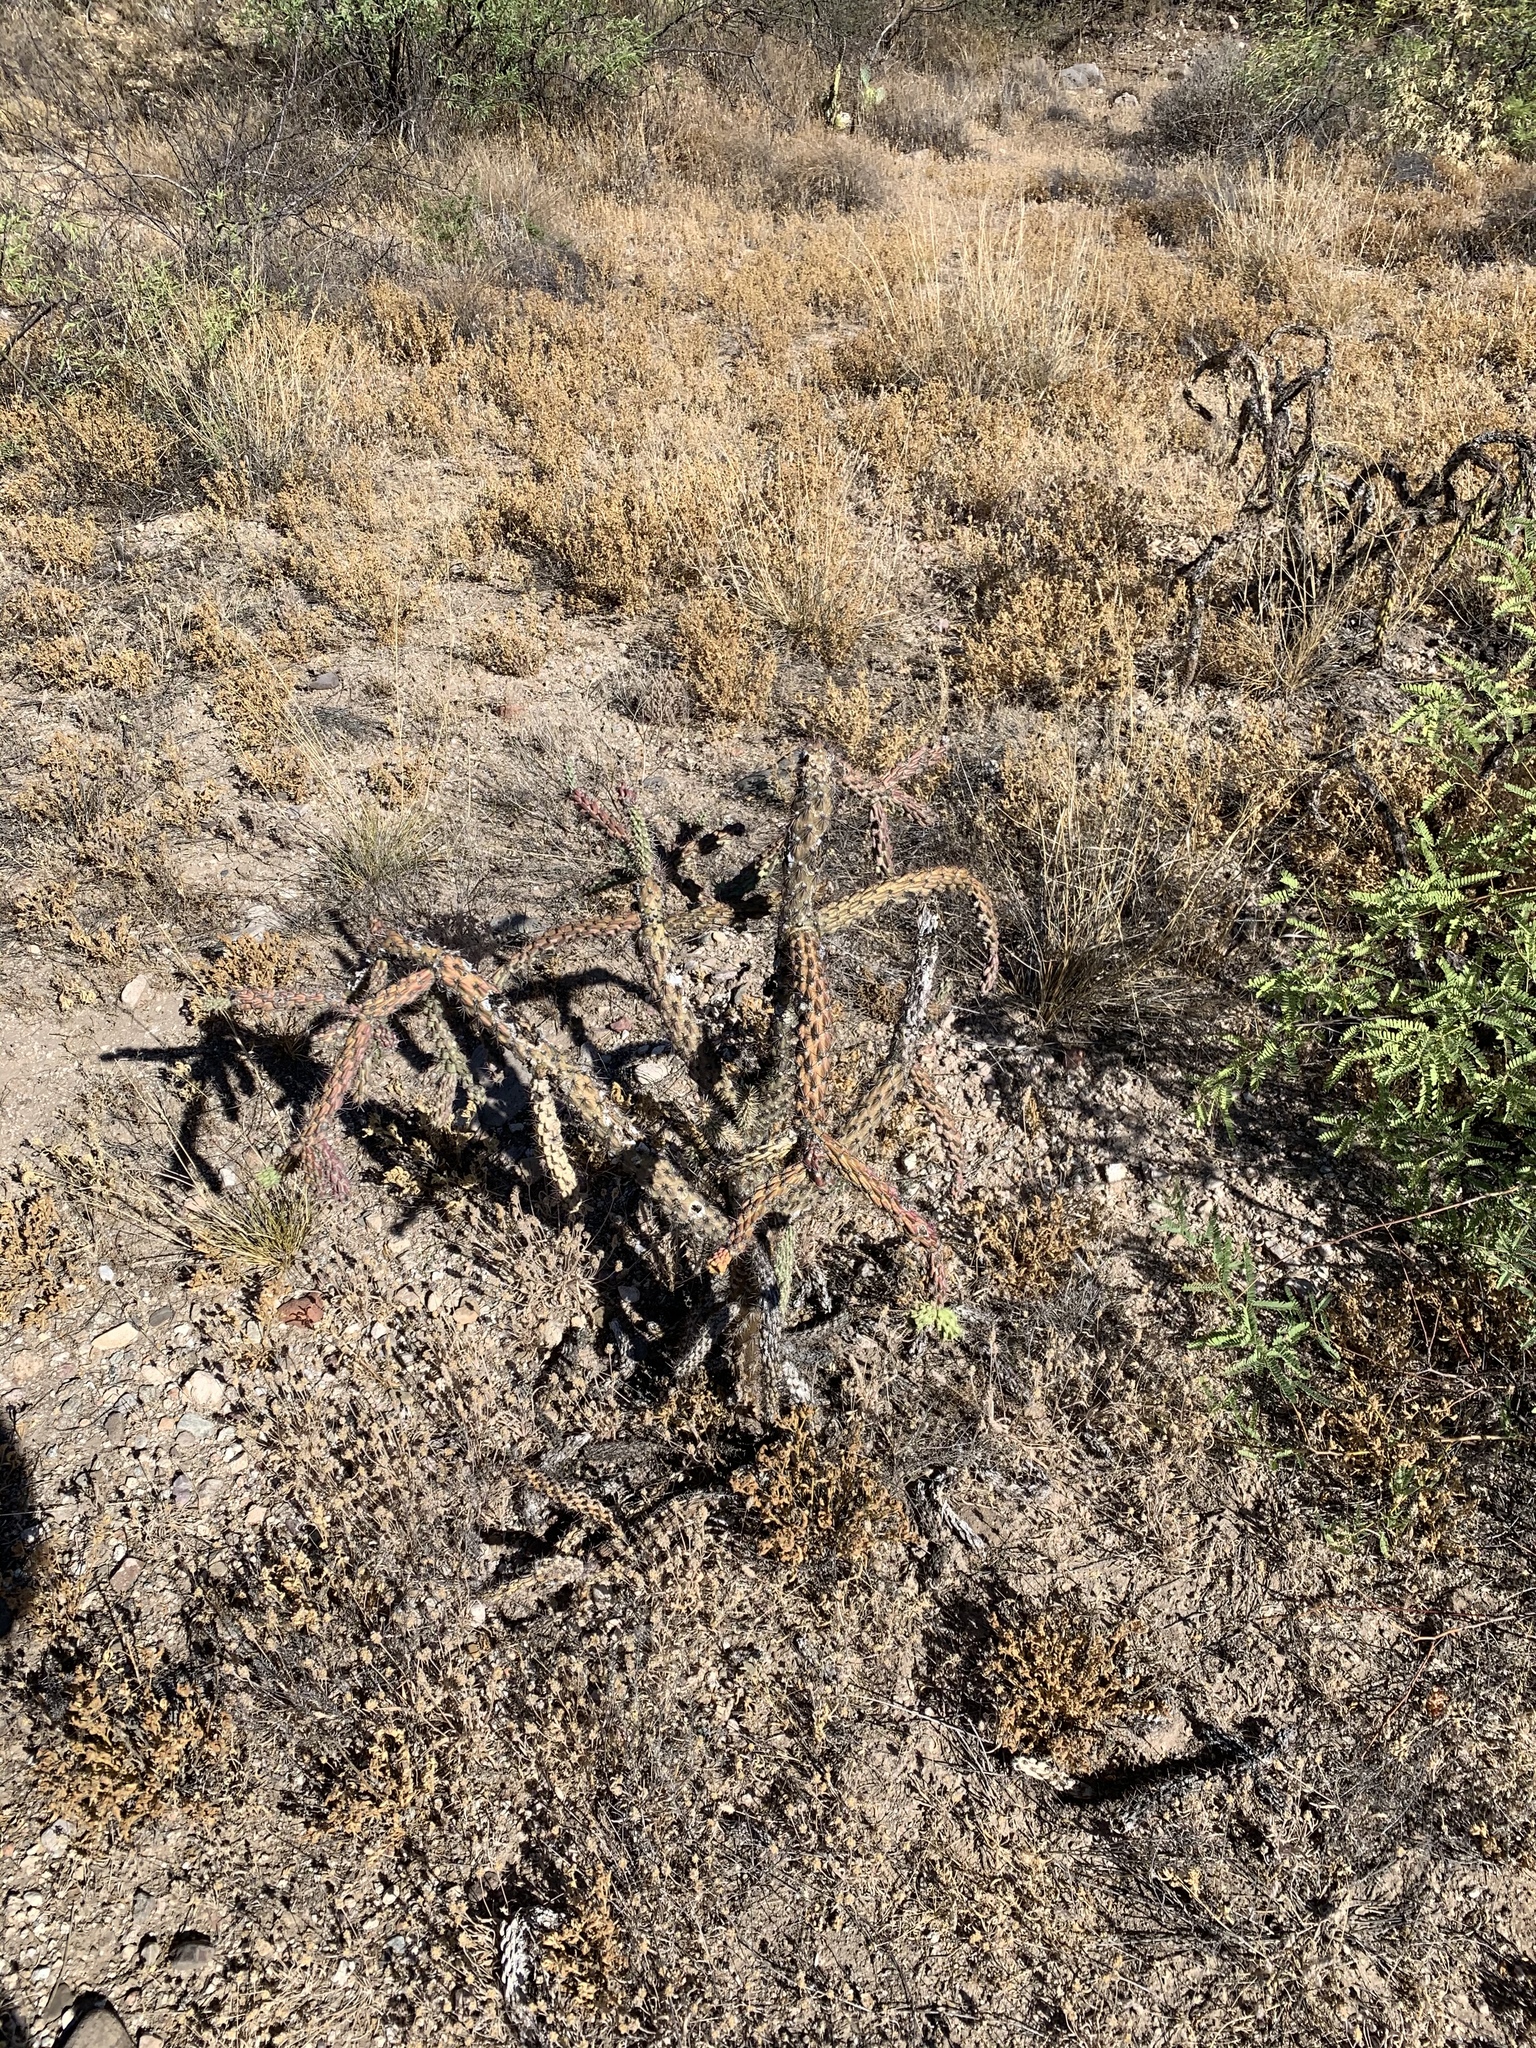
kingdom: Plantae
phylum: Tracheophyta
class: Magnoliopsida
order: Caryophyllales
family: Cactaceae
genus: Cylindropuntia
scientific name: Cylindropuntia imbricata
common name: Candelabrum cactus
